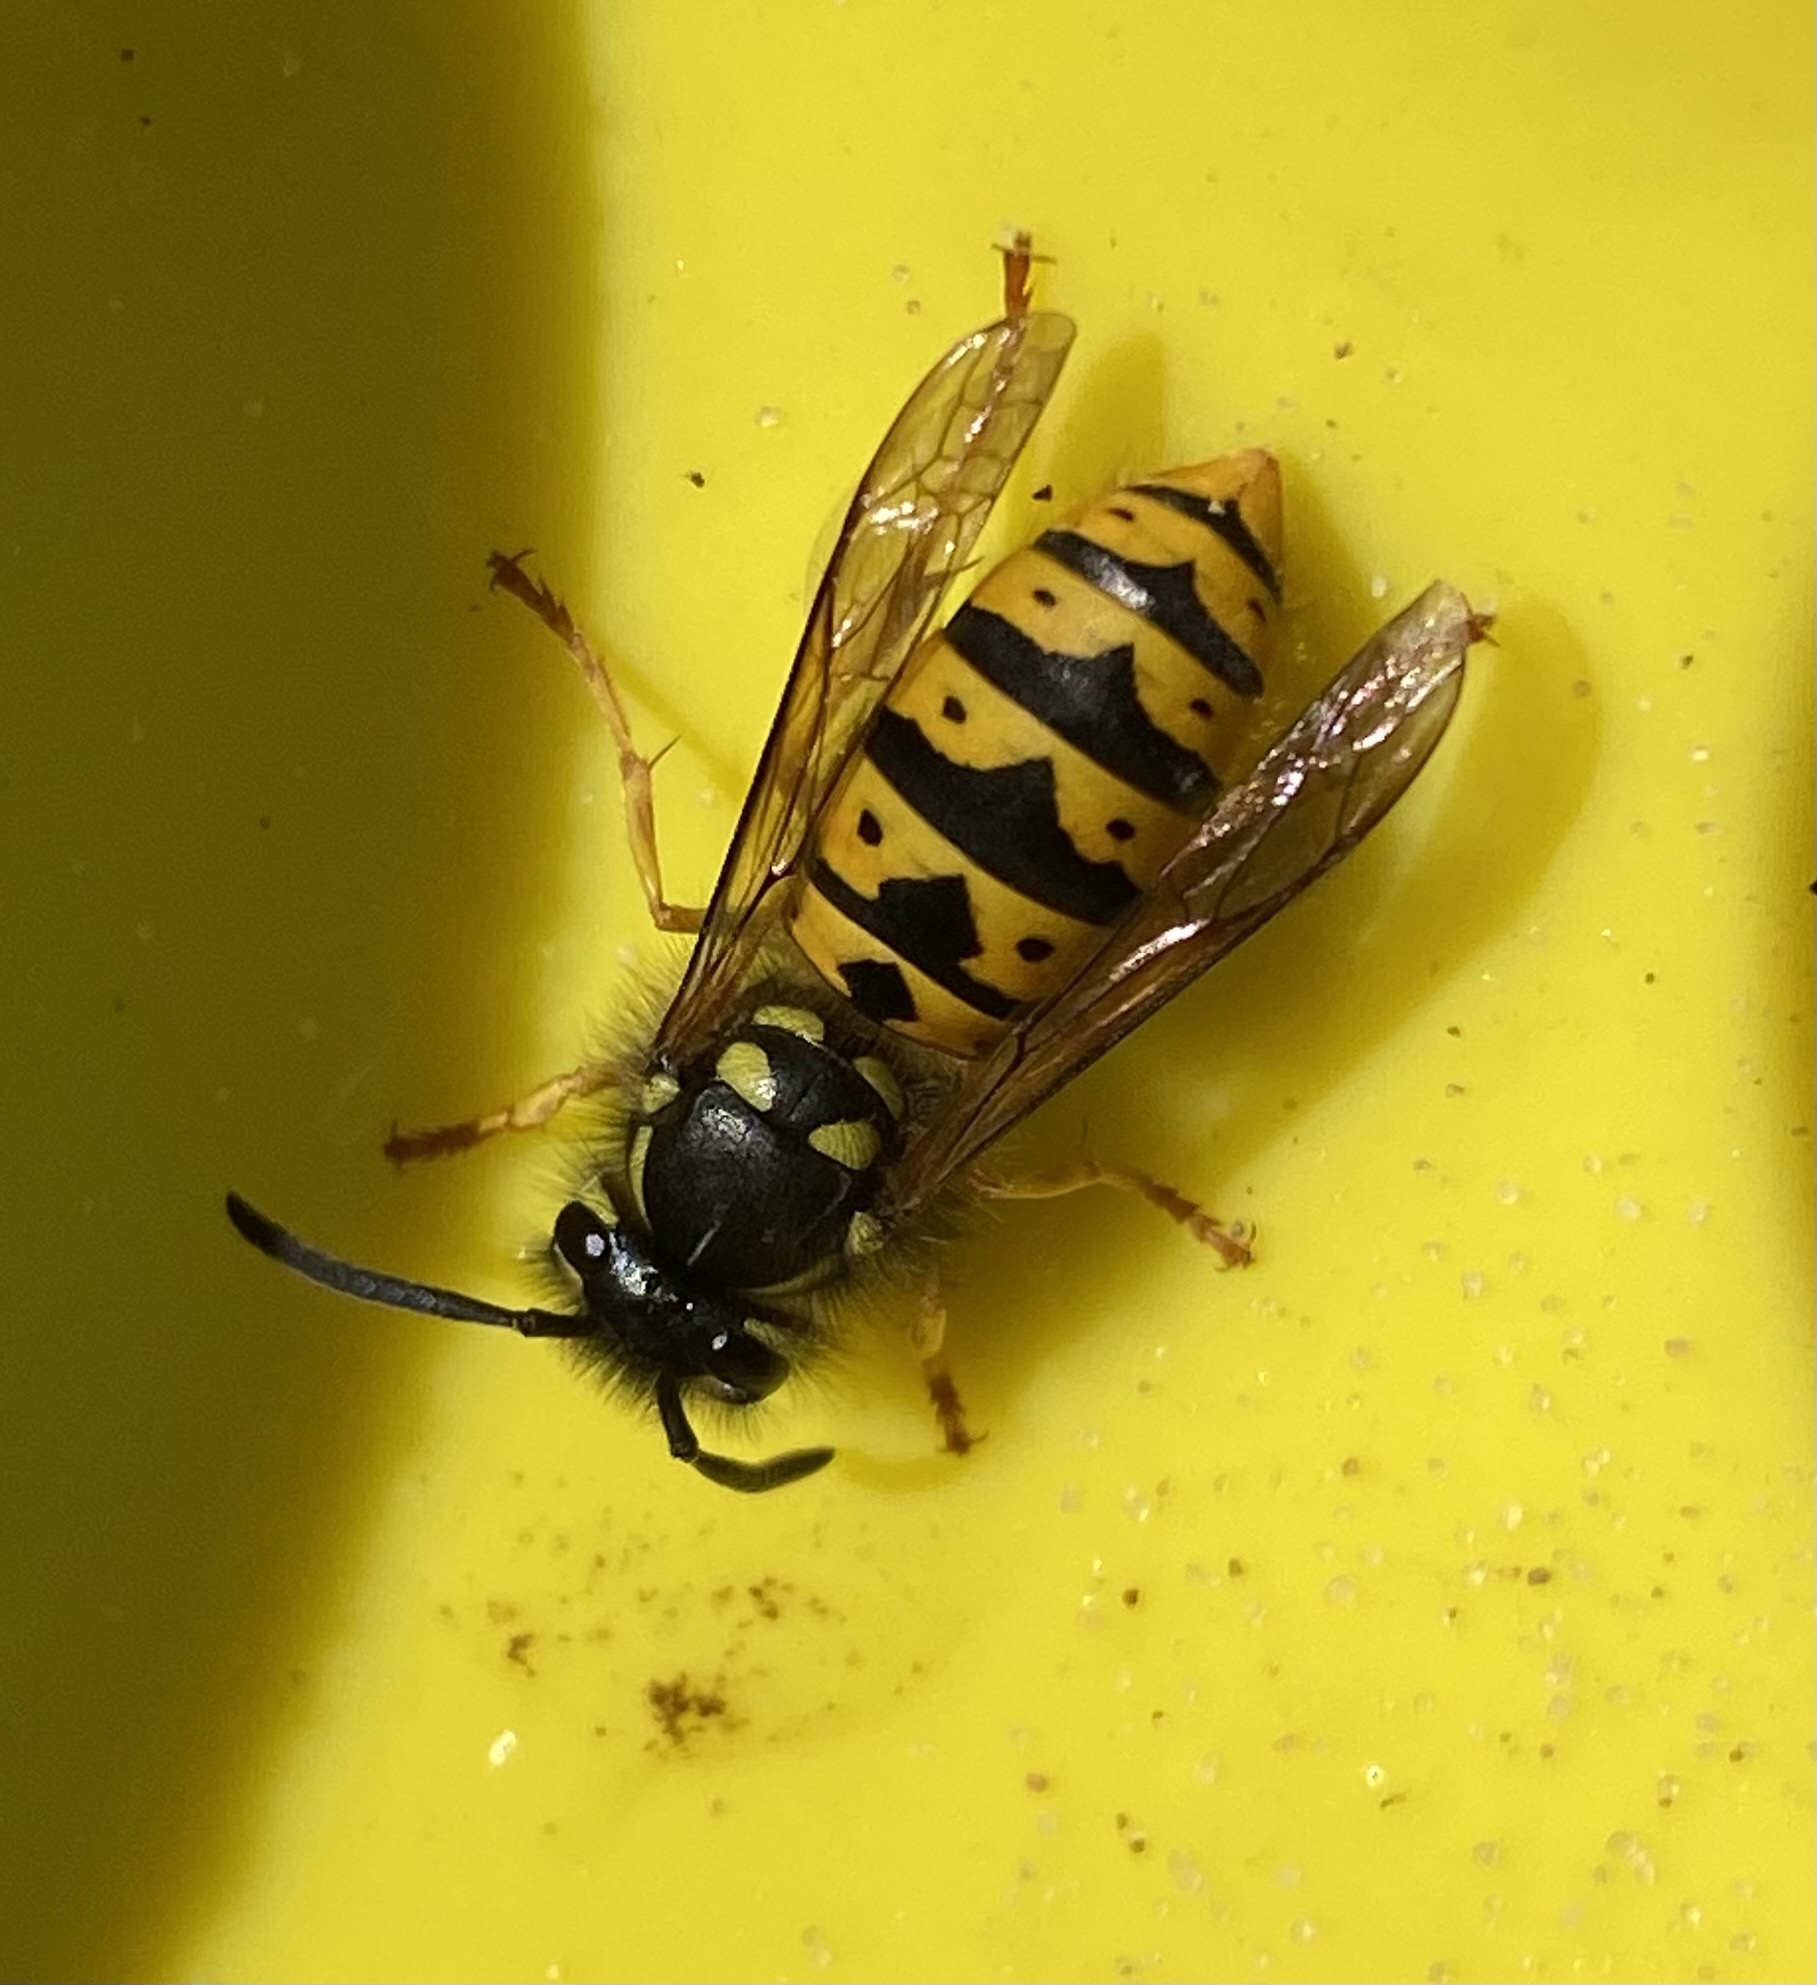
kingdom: Animalia
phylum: Arthropoda
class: Insecta
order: Hymenoptera
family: Vespidae
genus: Vespula
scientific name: Vespula germanica
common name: German wasp
